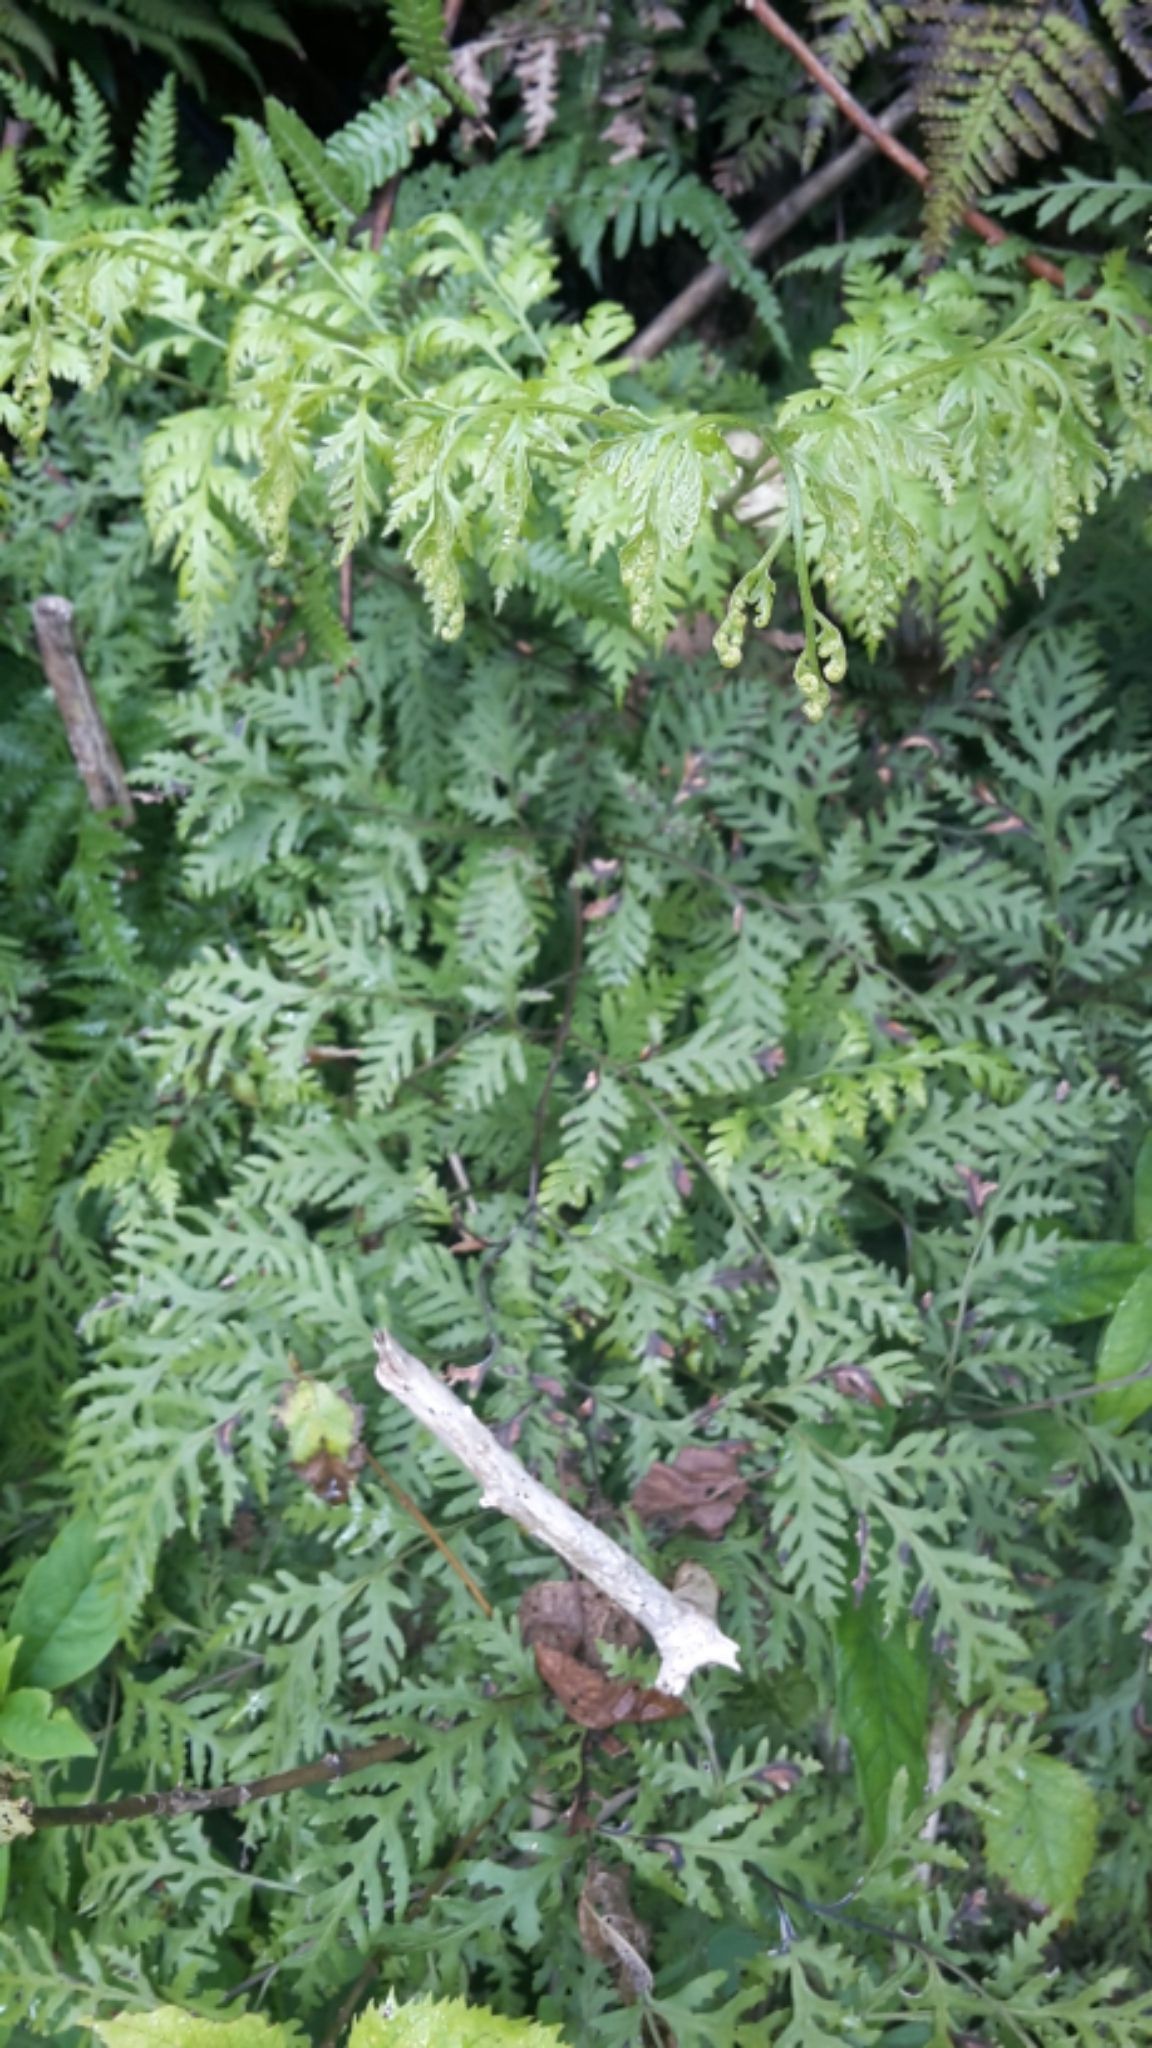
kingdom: Plantae
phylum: Tracheophyta
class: Polypodiopsida
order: Polypodiales
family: Pteridaceae
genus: Pteris
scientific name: Pteris macilenta
